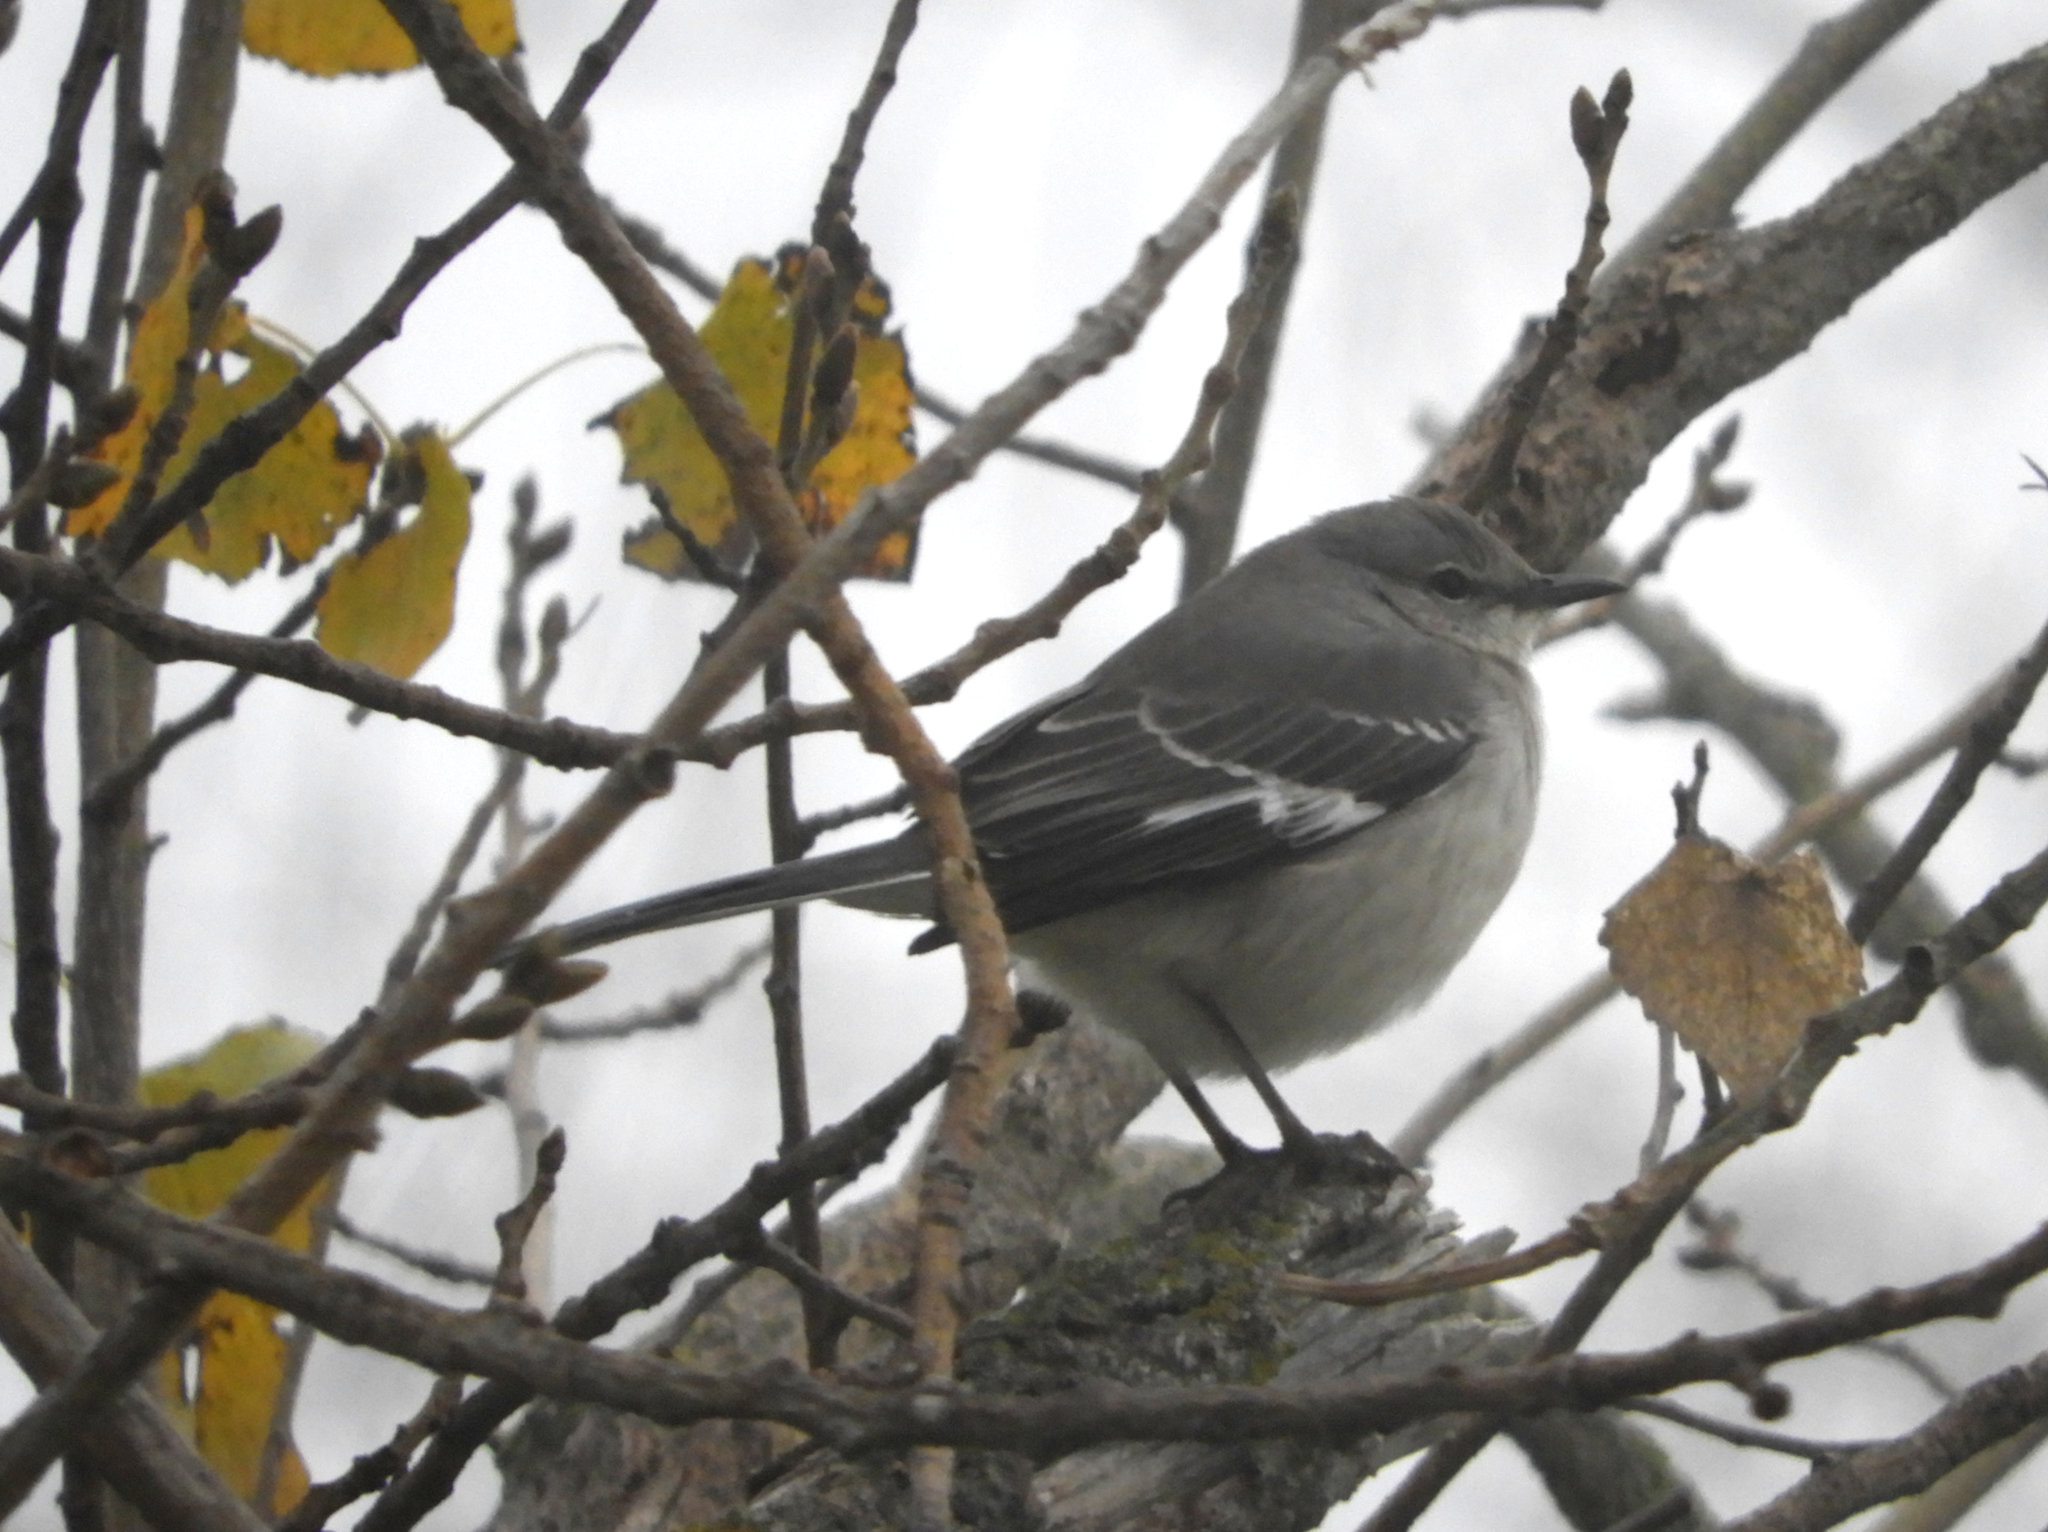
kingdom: Animalia
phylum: Chordata
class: Aves
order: Passeriformes
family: Mimidae
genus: Mimus
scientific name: Mimus polyglottos
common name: Northern mockingbird
